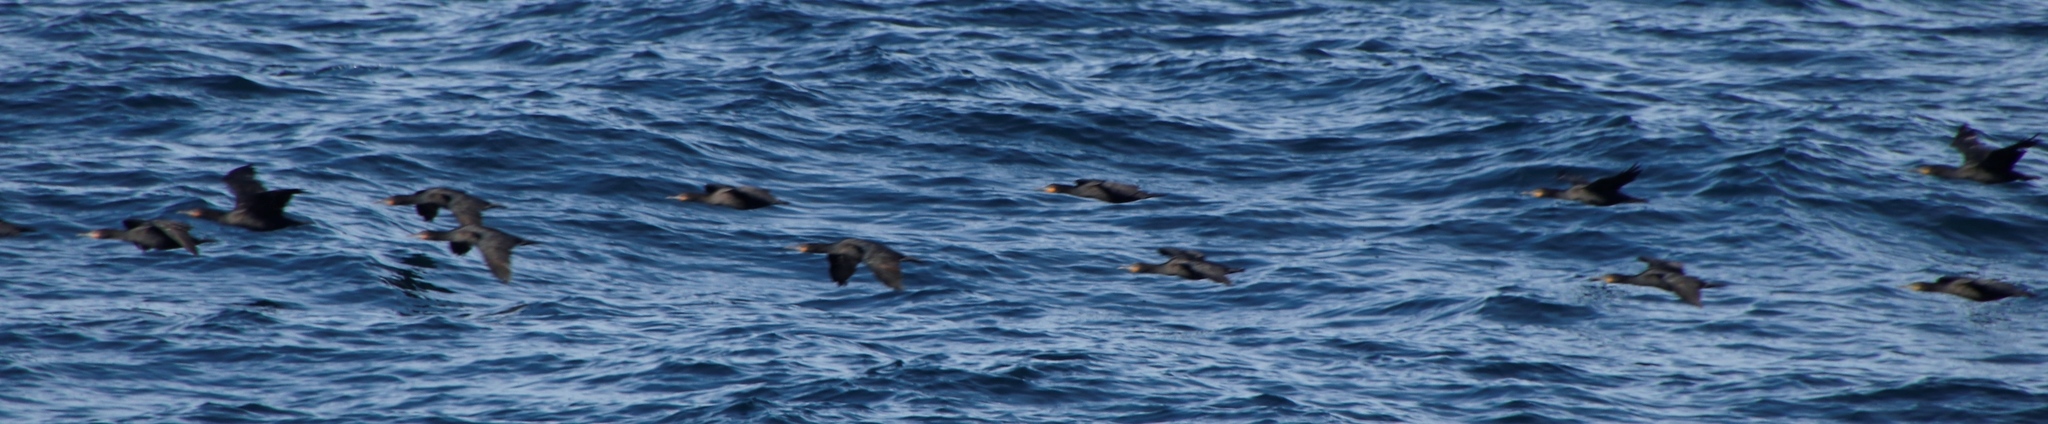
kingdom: Animalia
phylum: Chordata
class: Aves
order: Suliformes
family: Phalacrocoracidae
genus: Phalacrocorax
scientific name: Phalacrocorax capensis
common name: Cape cormorant
